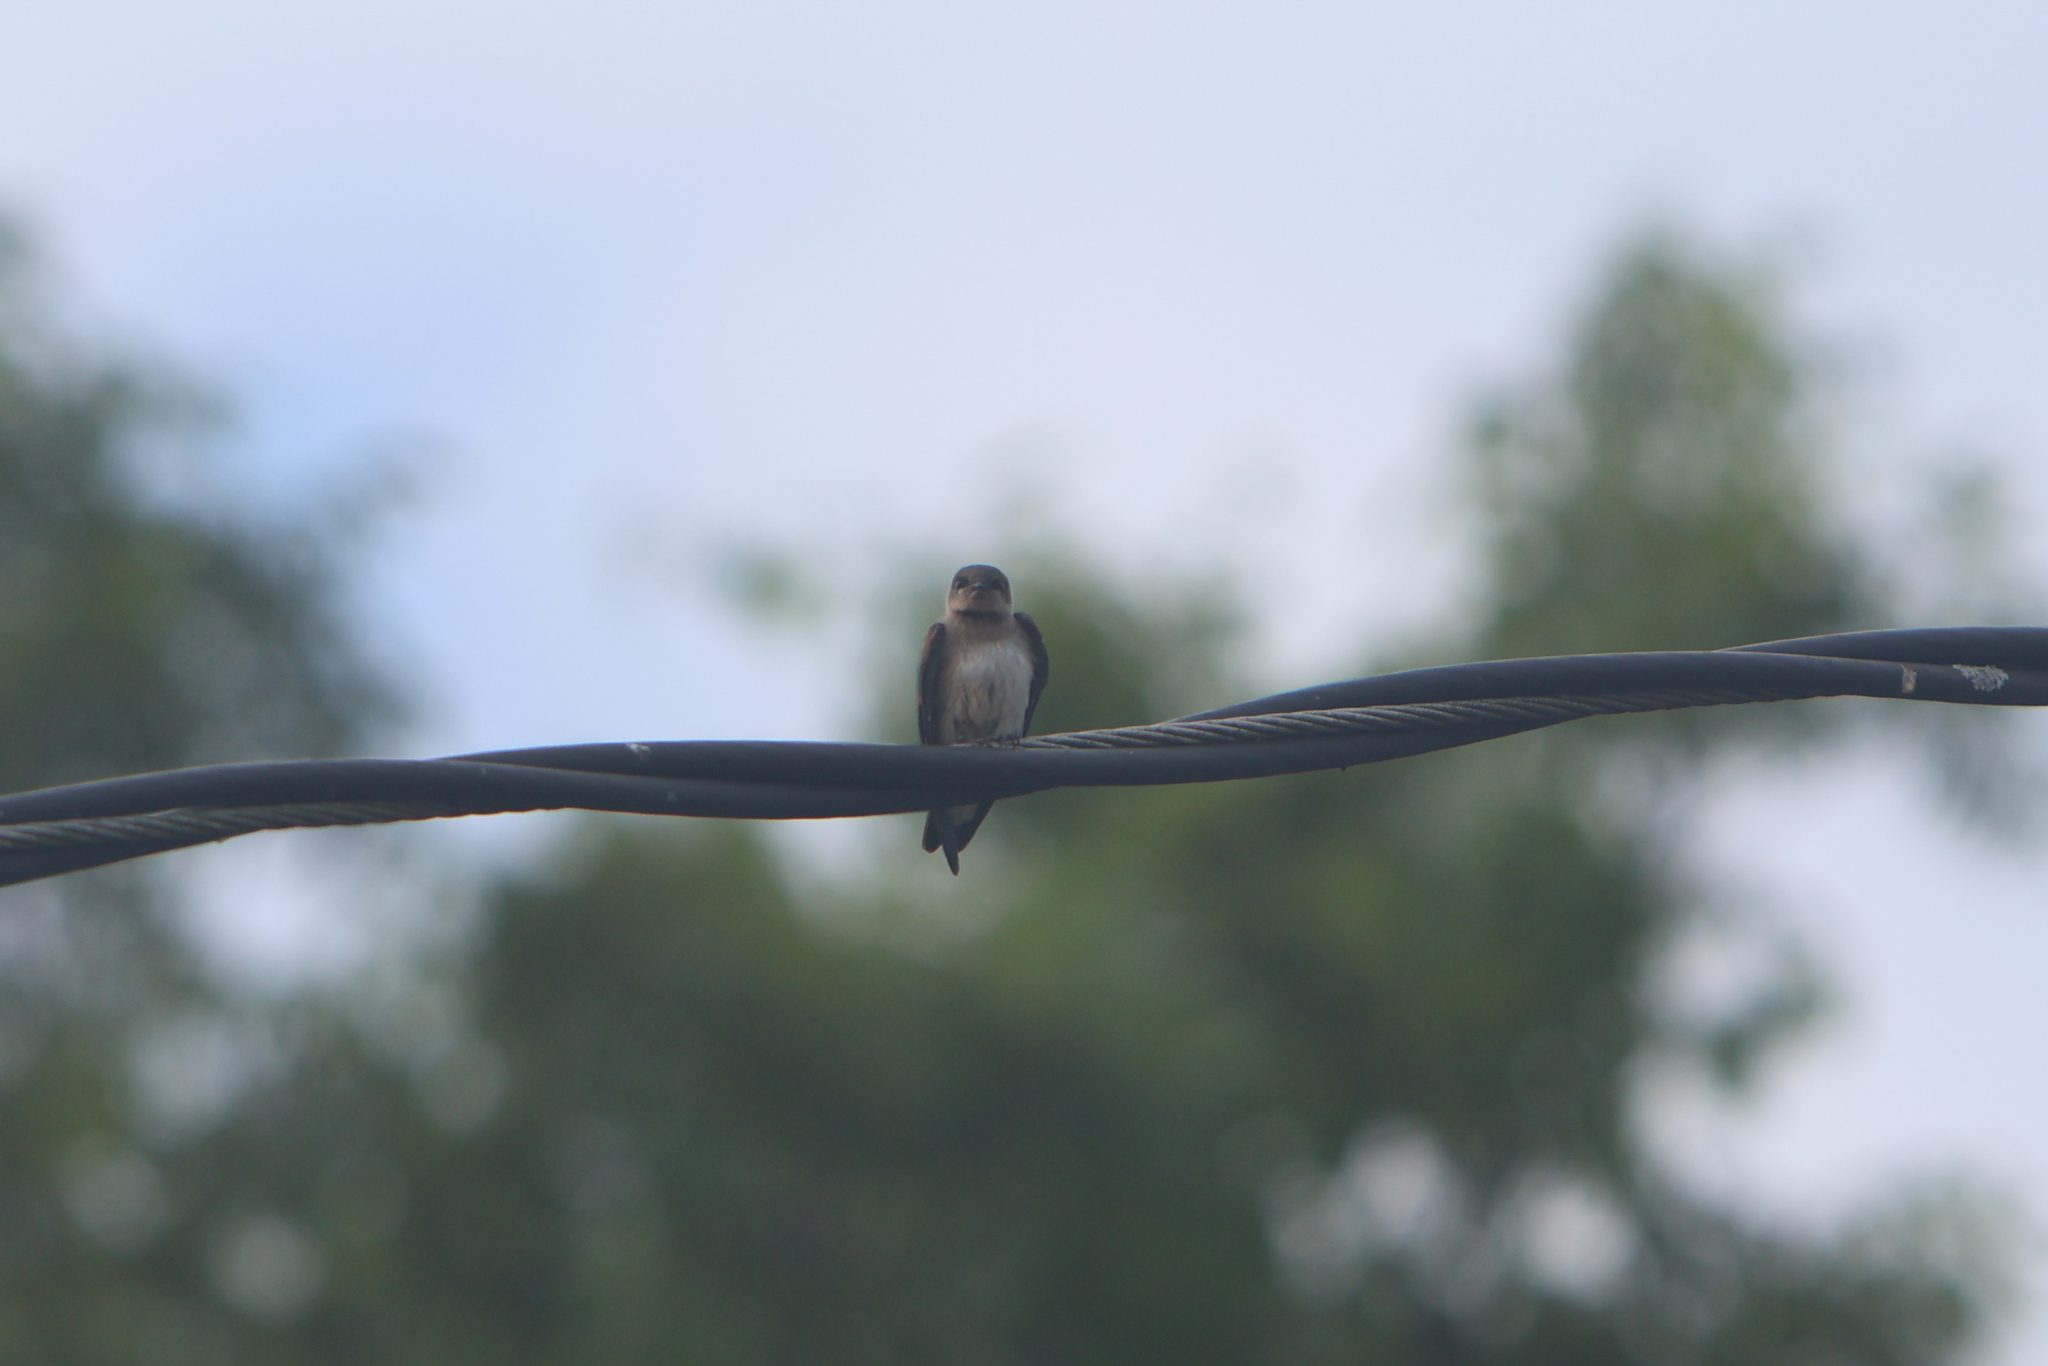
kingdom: Animalia
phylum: Chordata
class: Aves
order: Passeriformes
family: Hirundinidae
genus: Stelgidopteryx
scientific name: Stelgidopteryx serripennis
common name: Northern rough-winged swallow
